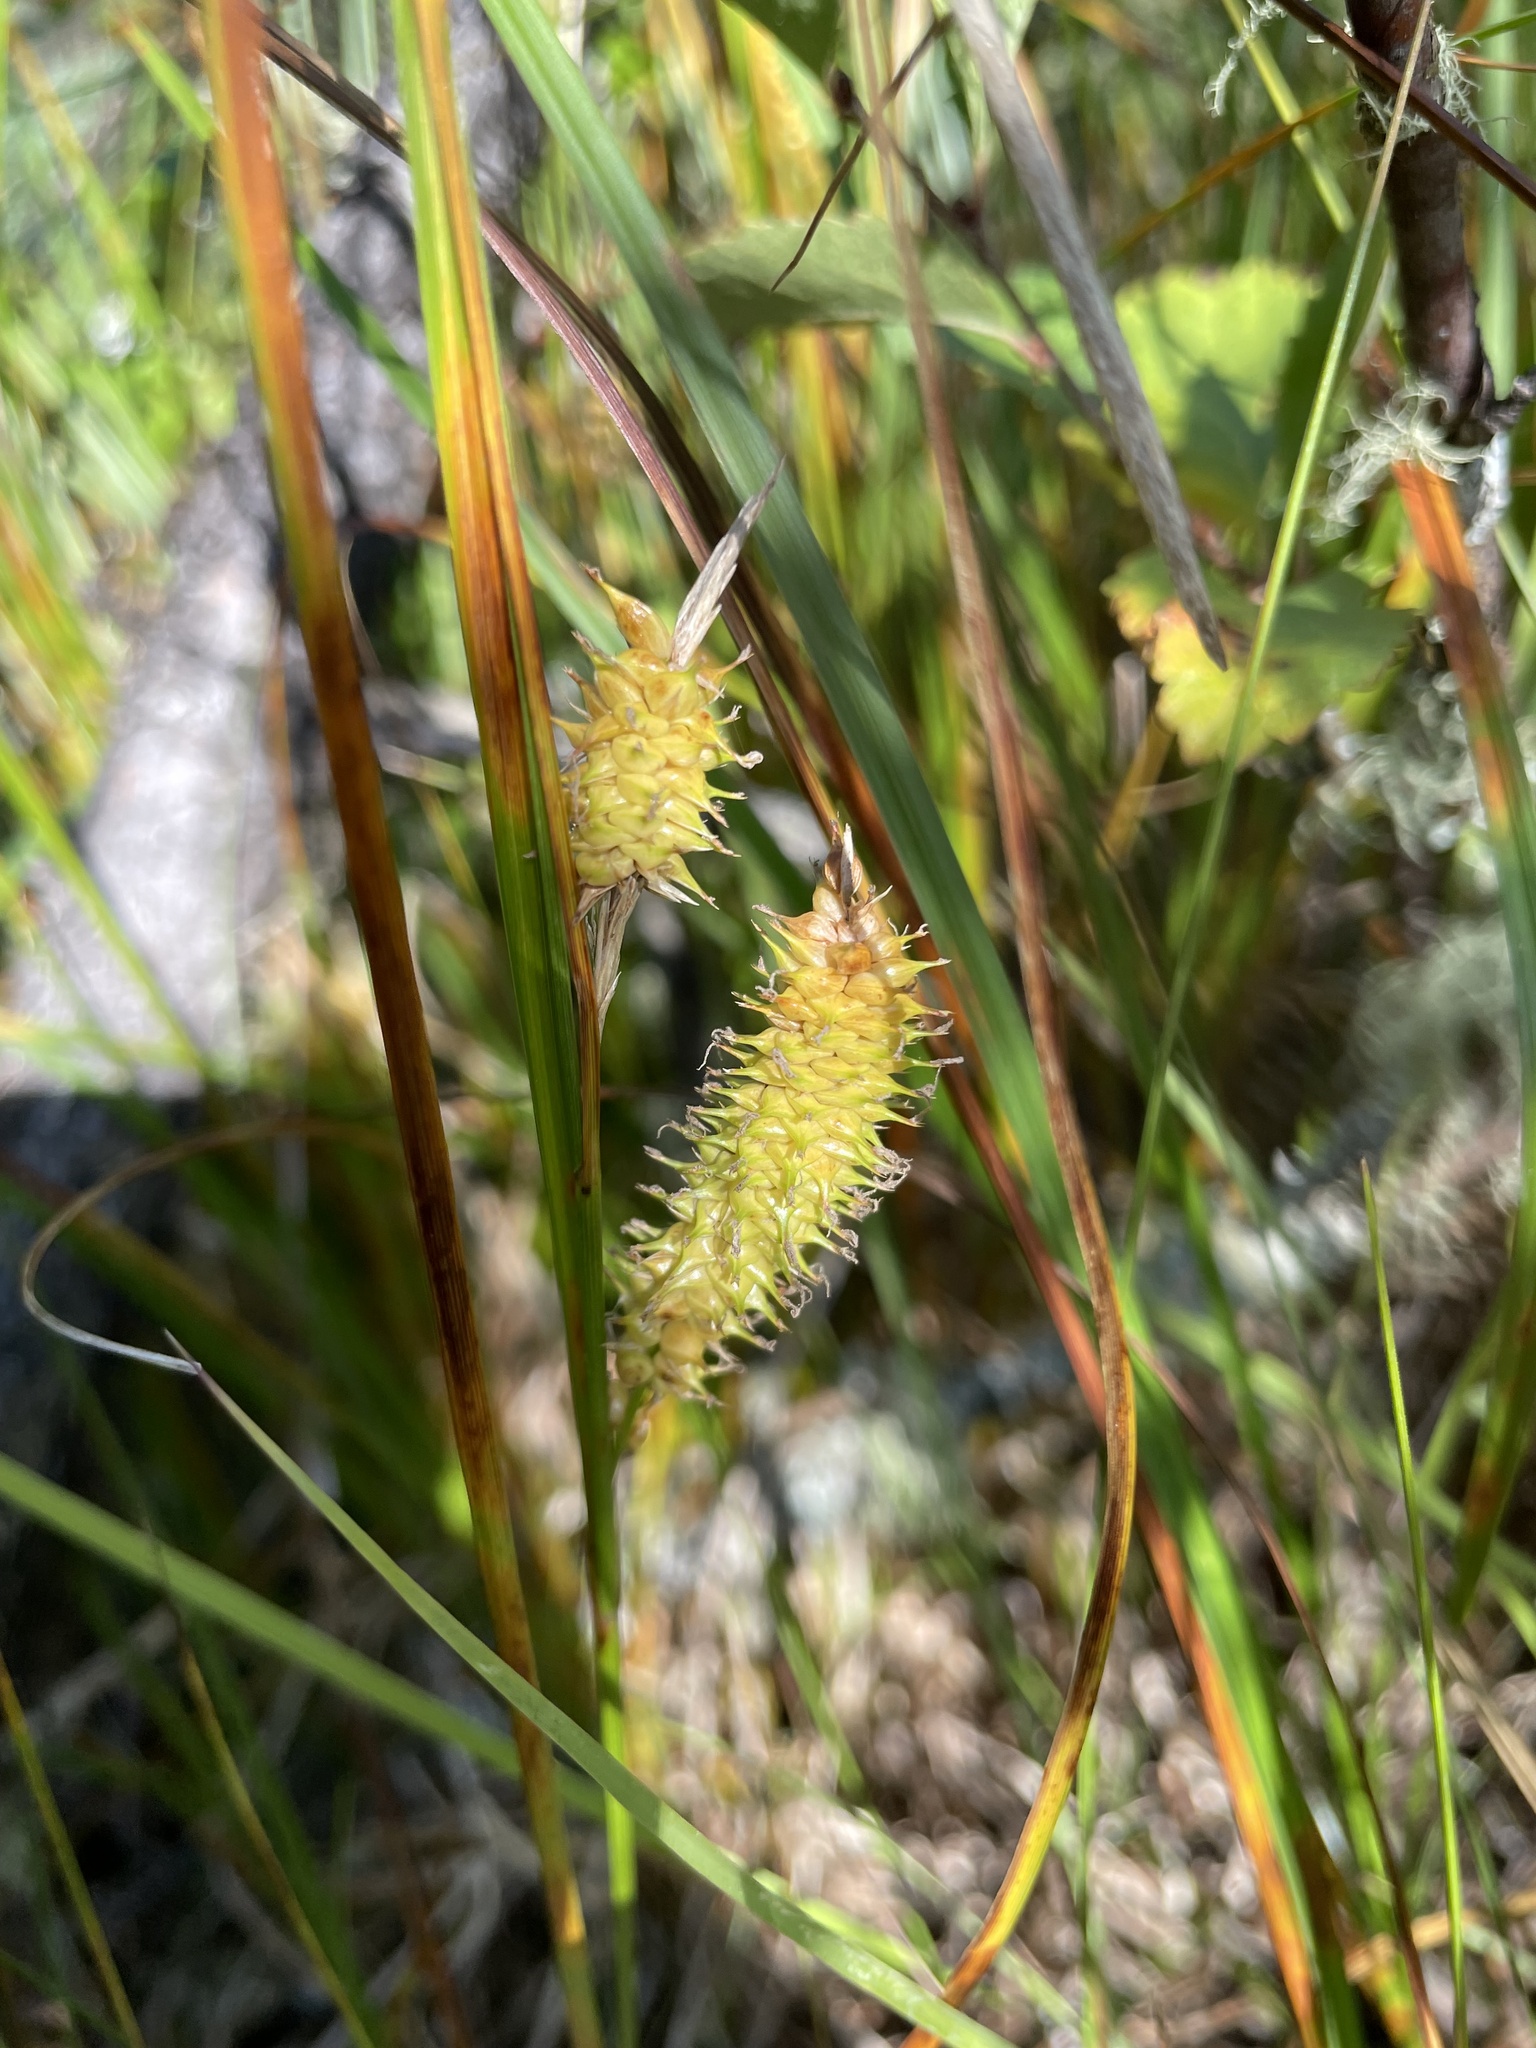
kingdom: Plantae
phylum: Tracheophyta
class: Liliopsida
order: Poales
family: Cyperaceae
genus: Carex
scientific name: Carex utriculata
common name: Beaked sedge
